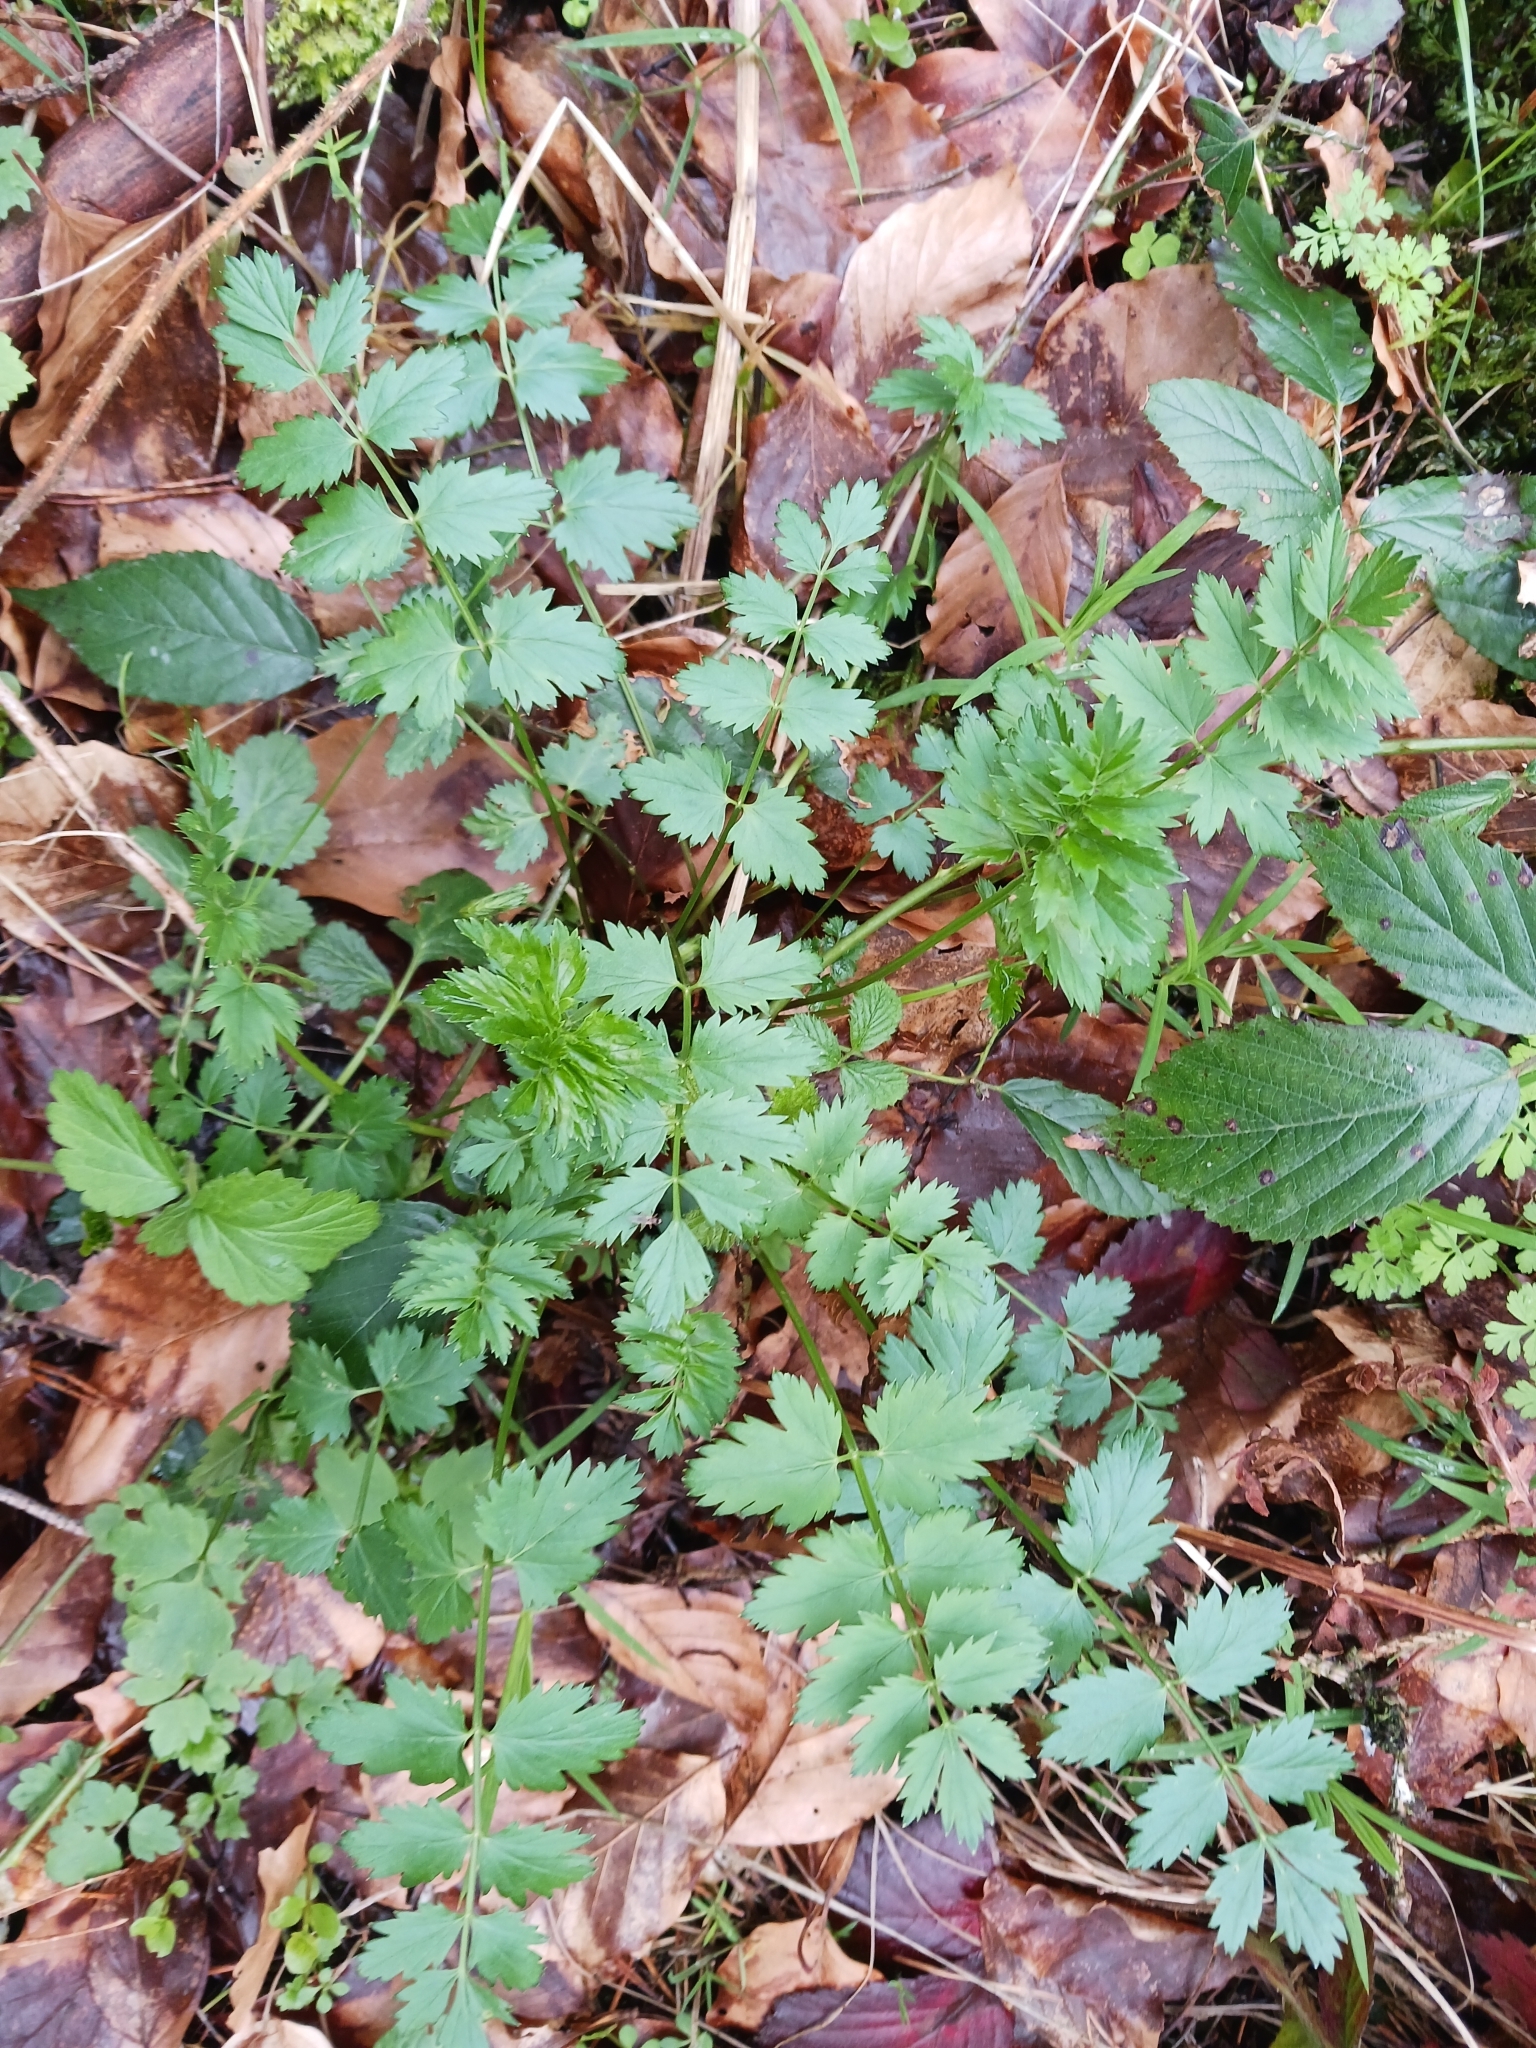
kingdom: Plantae
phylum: Tracheophyta
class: Magnoliopsida
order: Apiales
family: Apiaceae
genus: Pimpinella
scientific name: Pimpinella major
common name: Greater burnet-saxifrage
